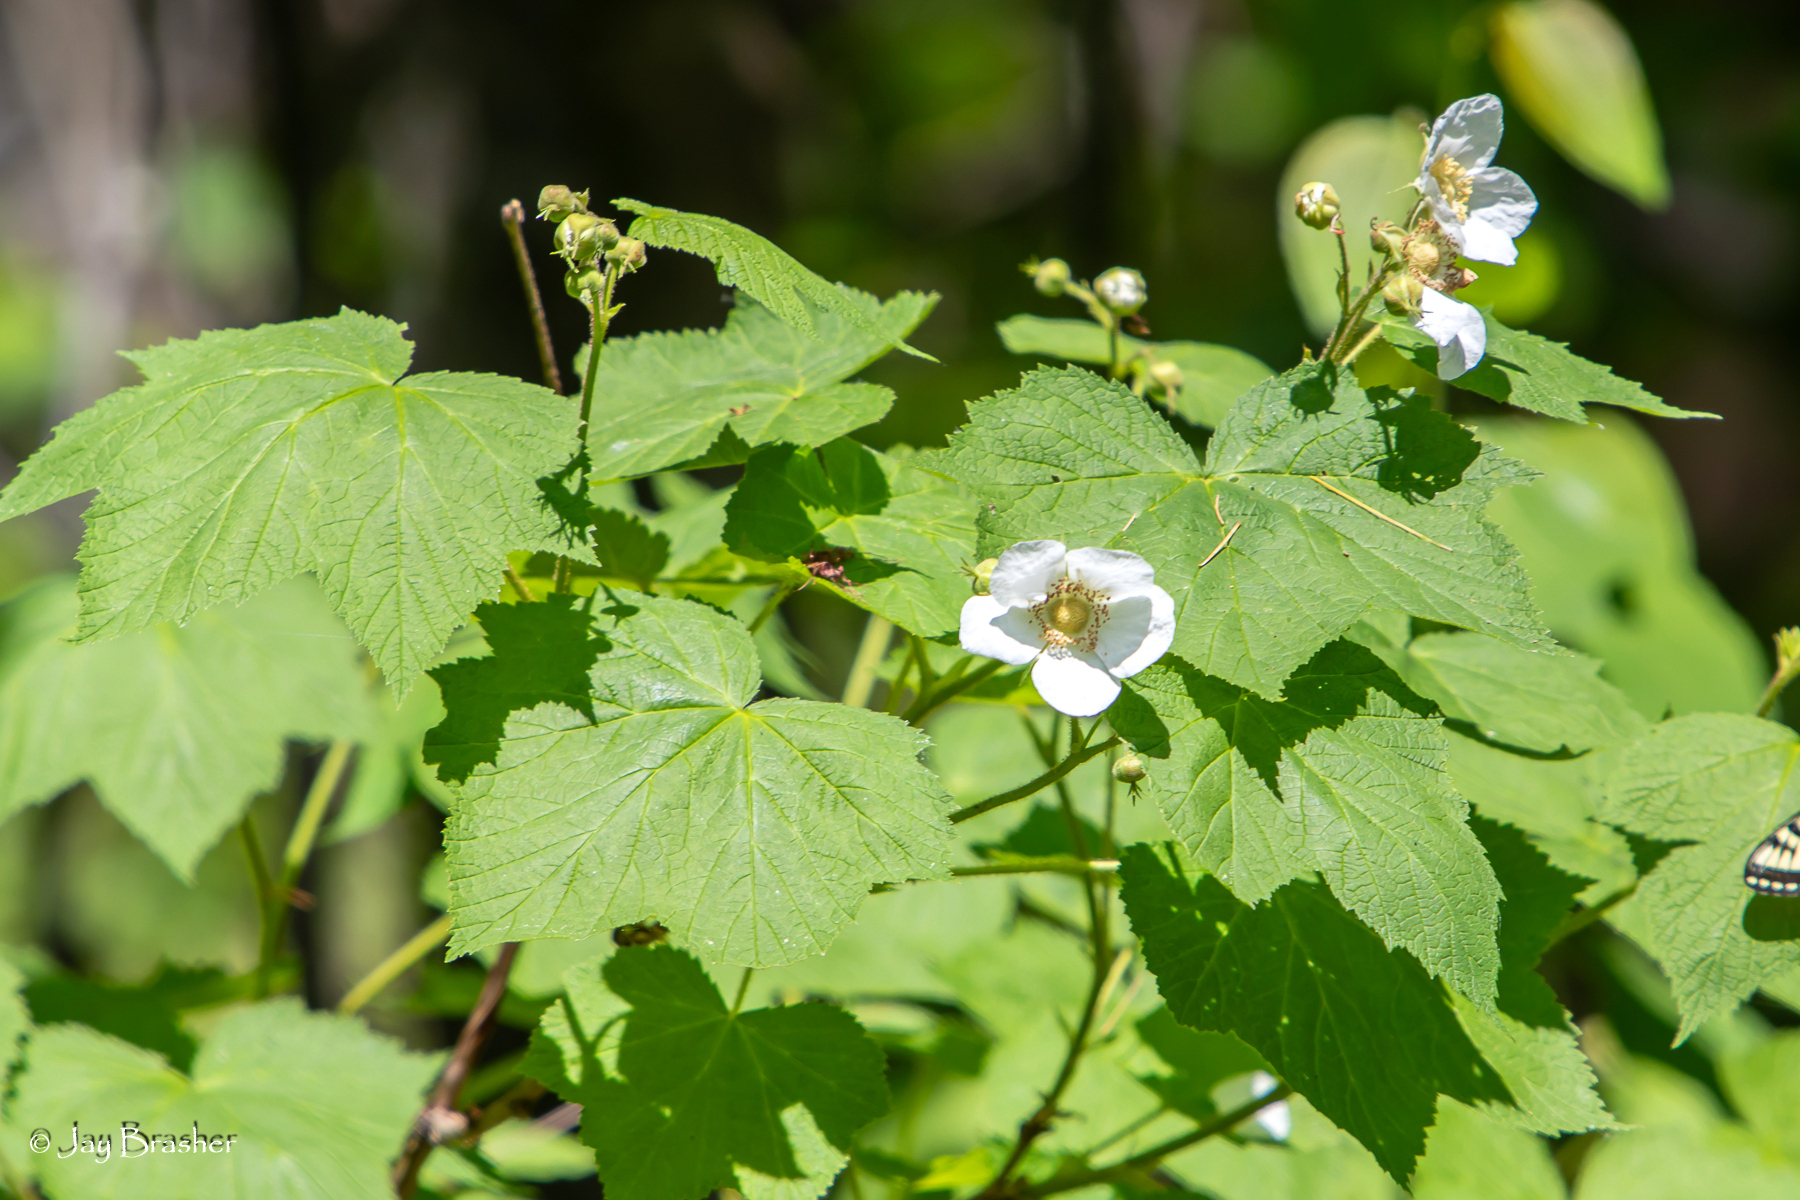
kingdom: Plantae
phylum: Tracheophyta
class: Magnoliopsida
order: Rosales
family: Rosaceae
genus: Rubus
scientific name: Rubus parviflorus
